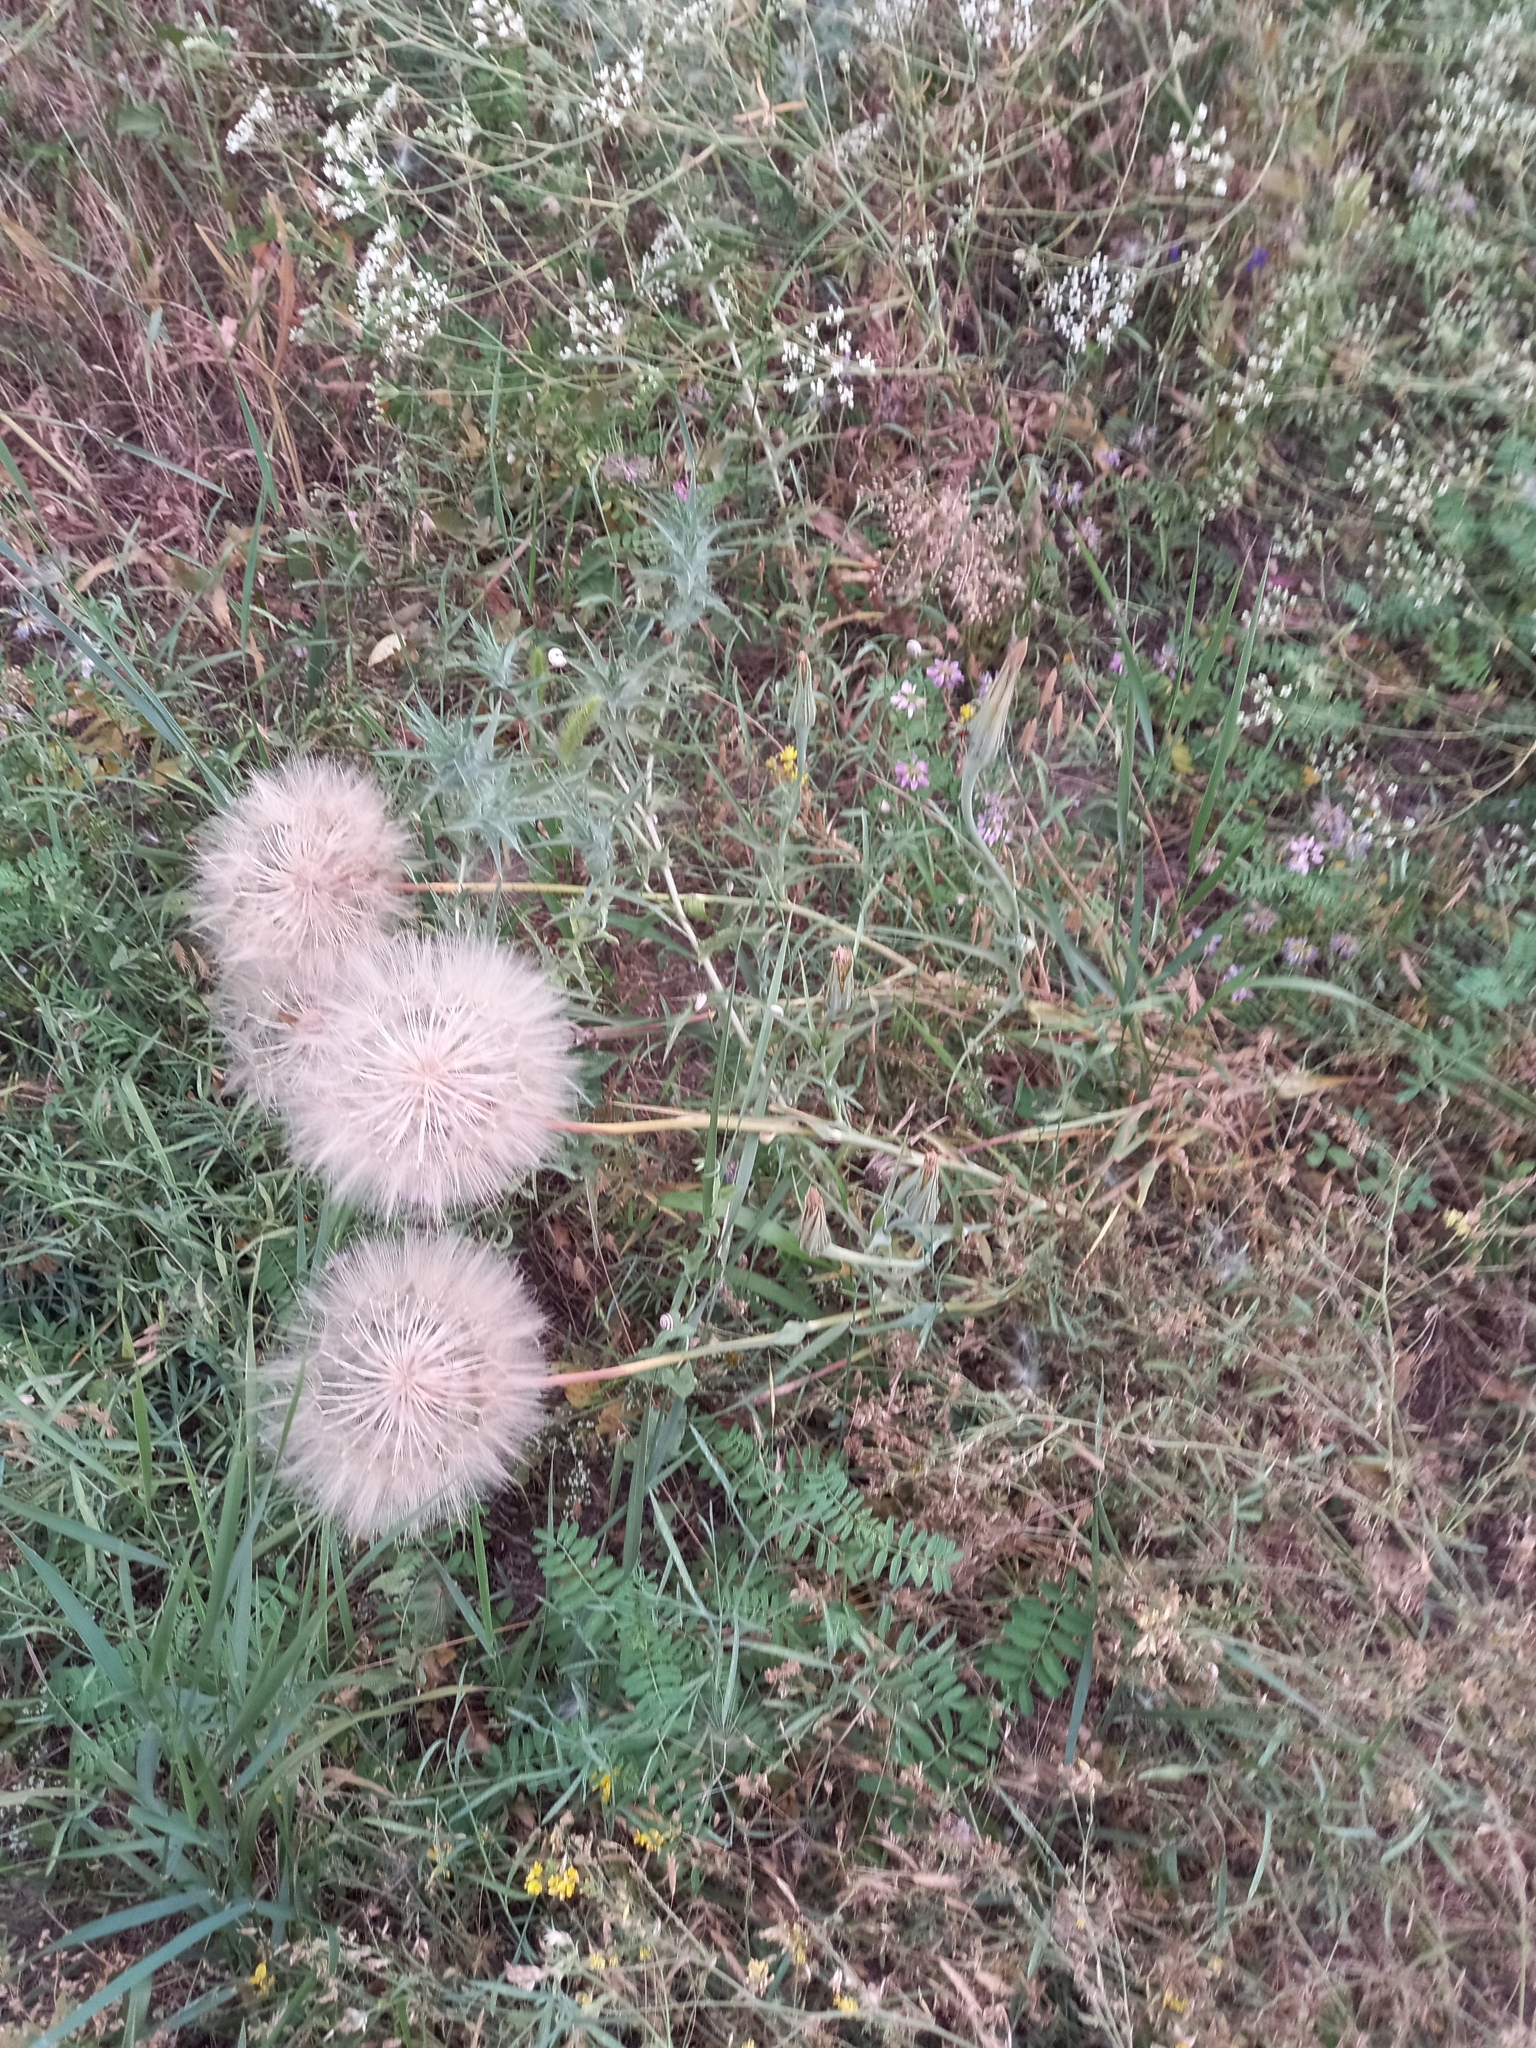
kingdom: Plantae
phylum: Tracheophyta
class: Magnoliopsida
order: Asterales
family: Asteraceae
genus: Tragopogon
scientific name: Tragopogon dubius
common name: Yellow salsify
